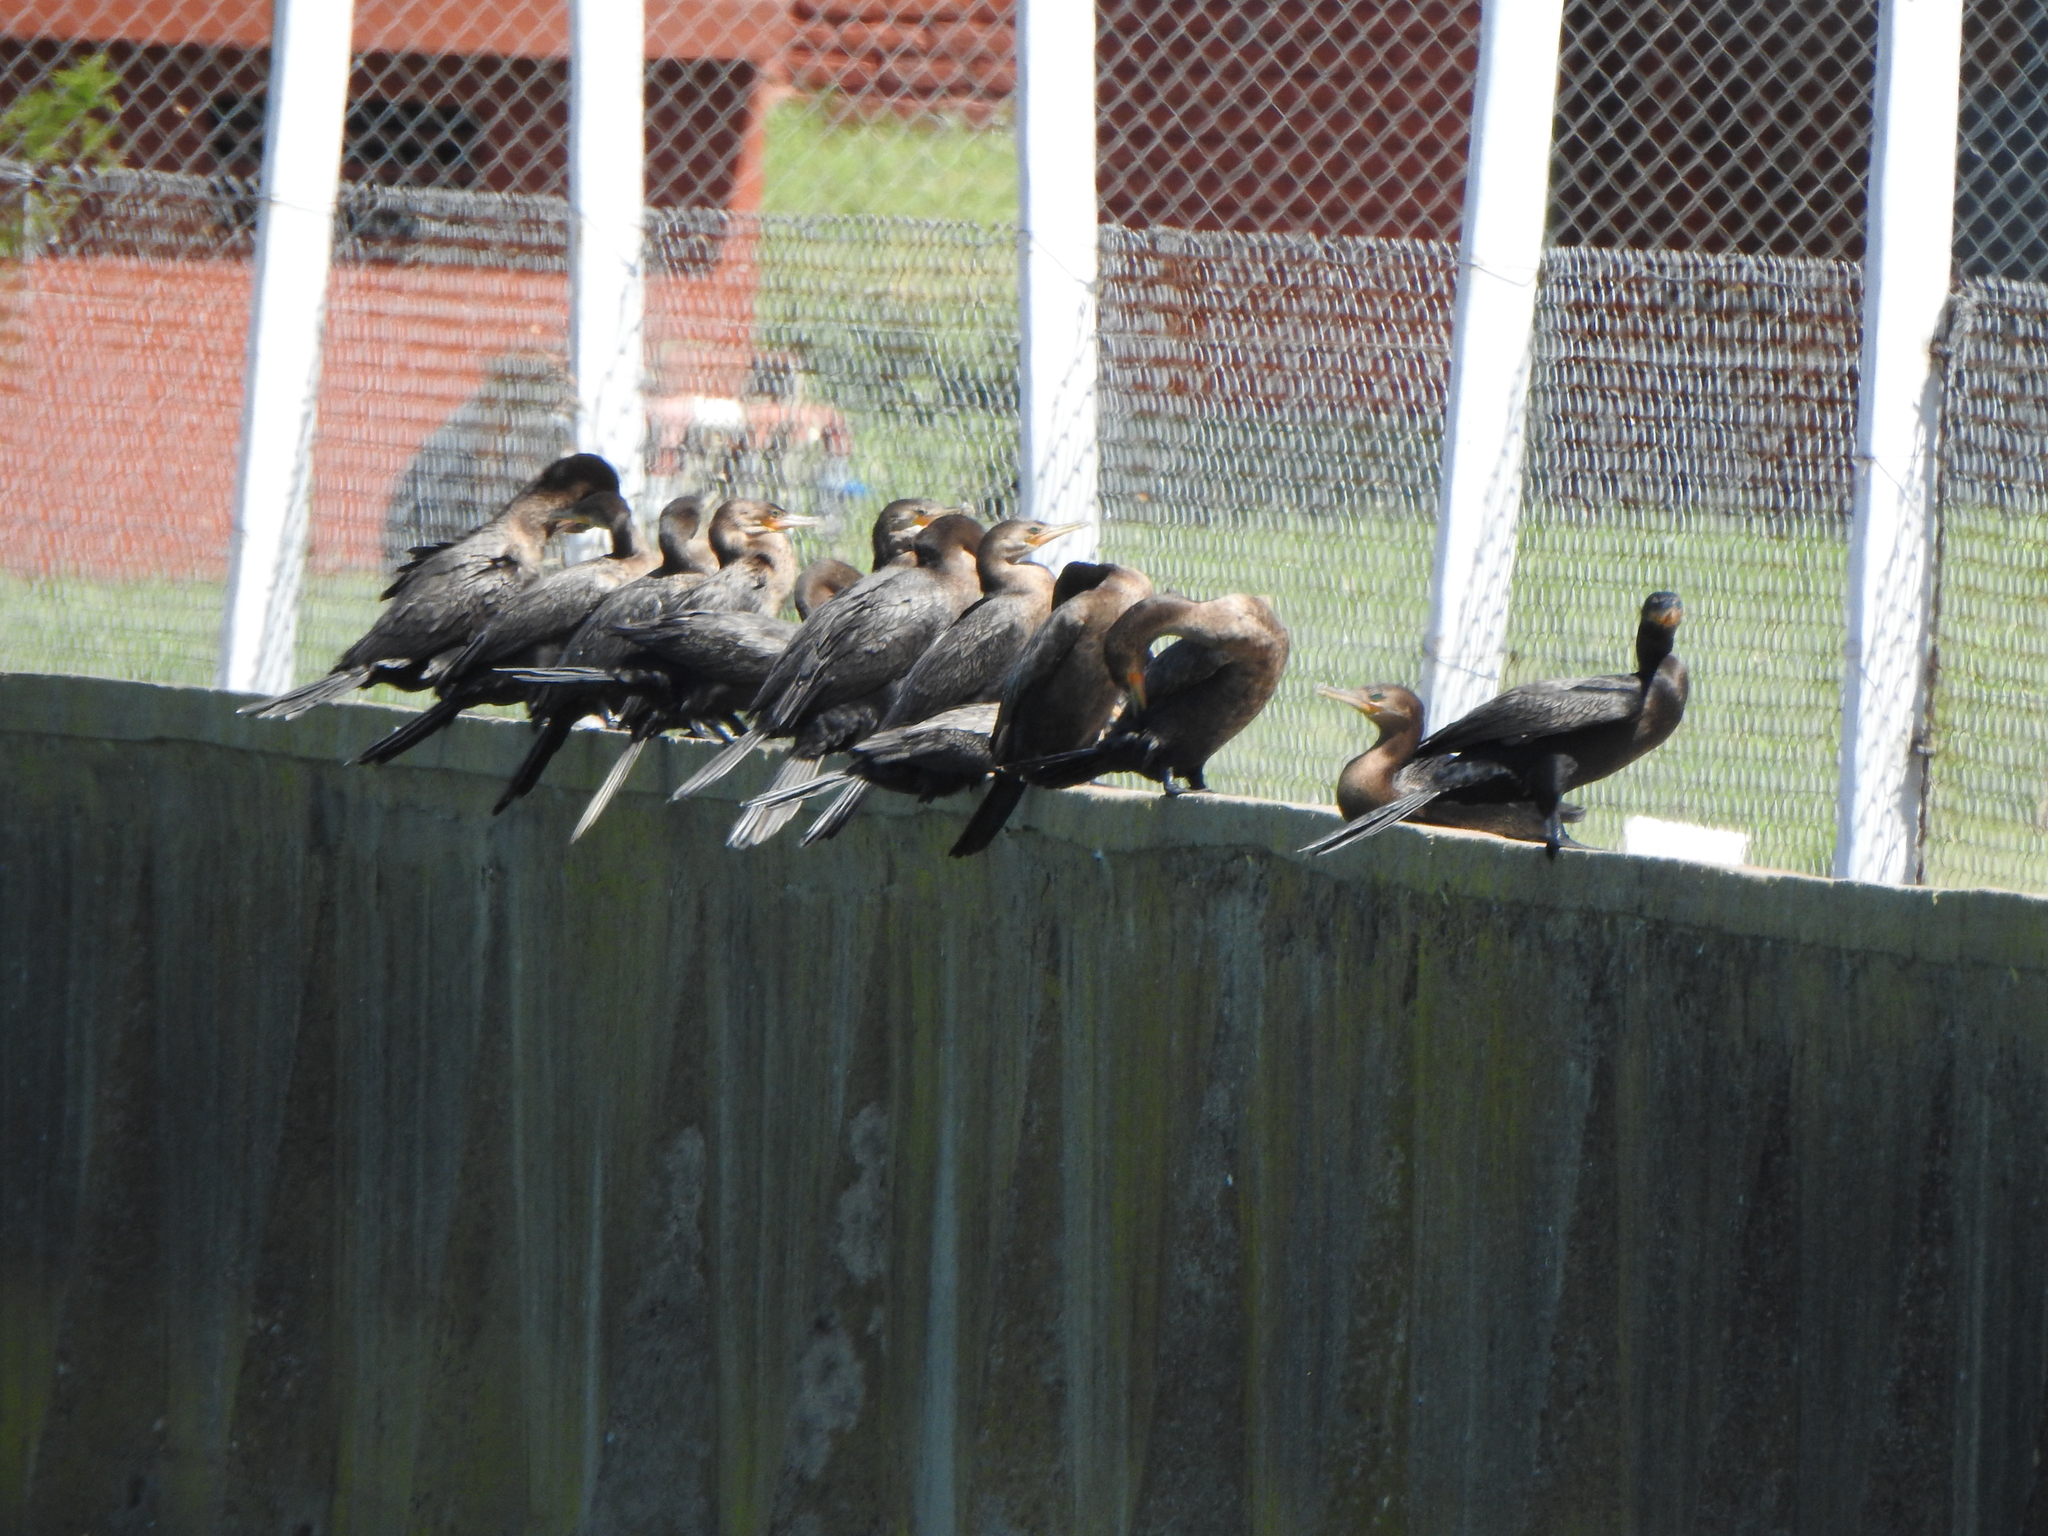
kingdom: Animalia
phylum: Chordata
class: Aves
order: Suliformes
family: Phalacrocoracidae
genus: Phalacrocorax
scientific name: Phalacrocorax brasilianus
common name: Neotropic cormorant
